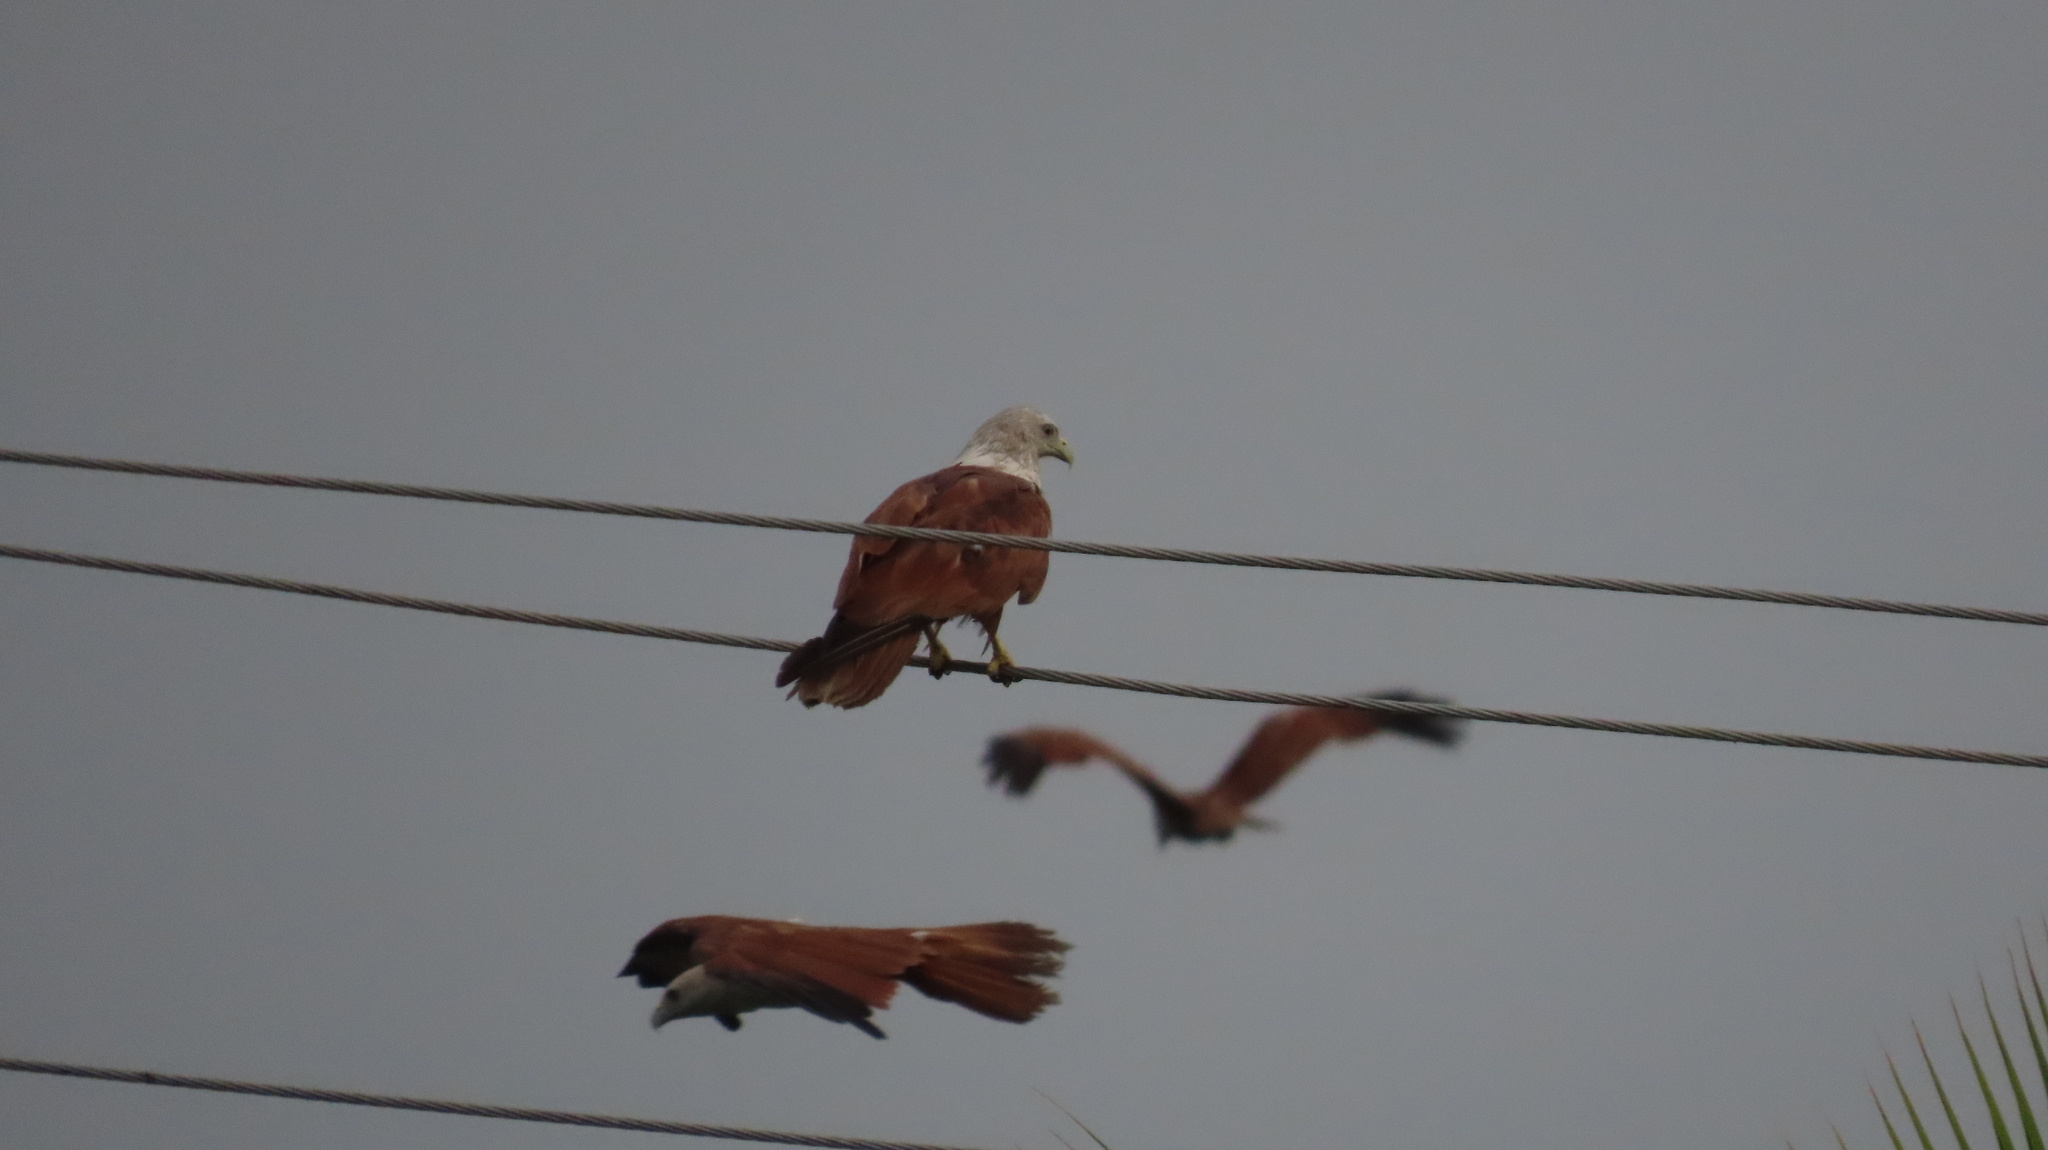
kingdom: Animalia
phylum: Chordata
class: Aves
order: Accipitriformes
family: Accipitridae
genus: Haliastur
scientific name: Haliastur indus
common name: Brahminy kite
